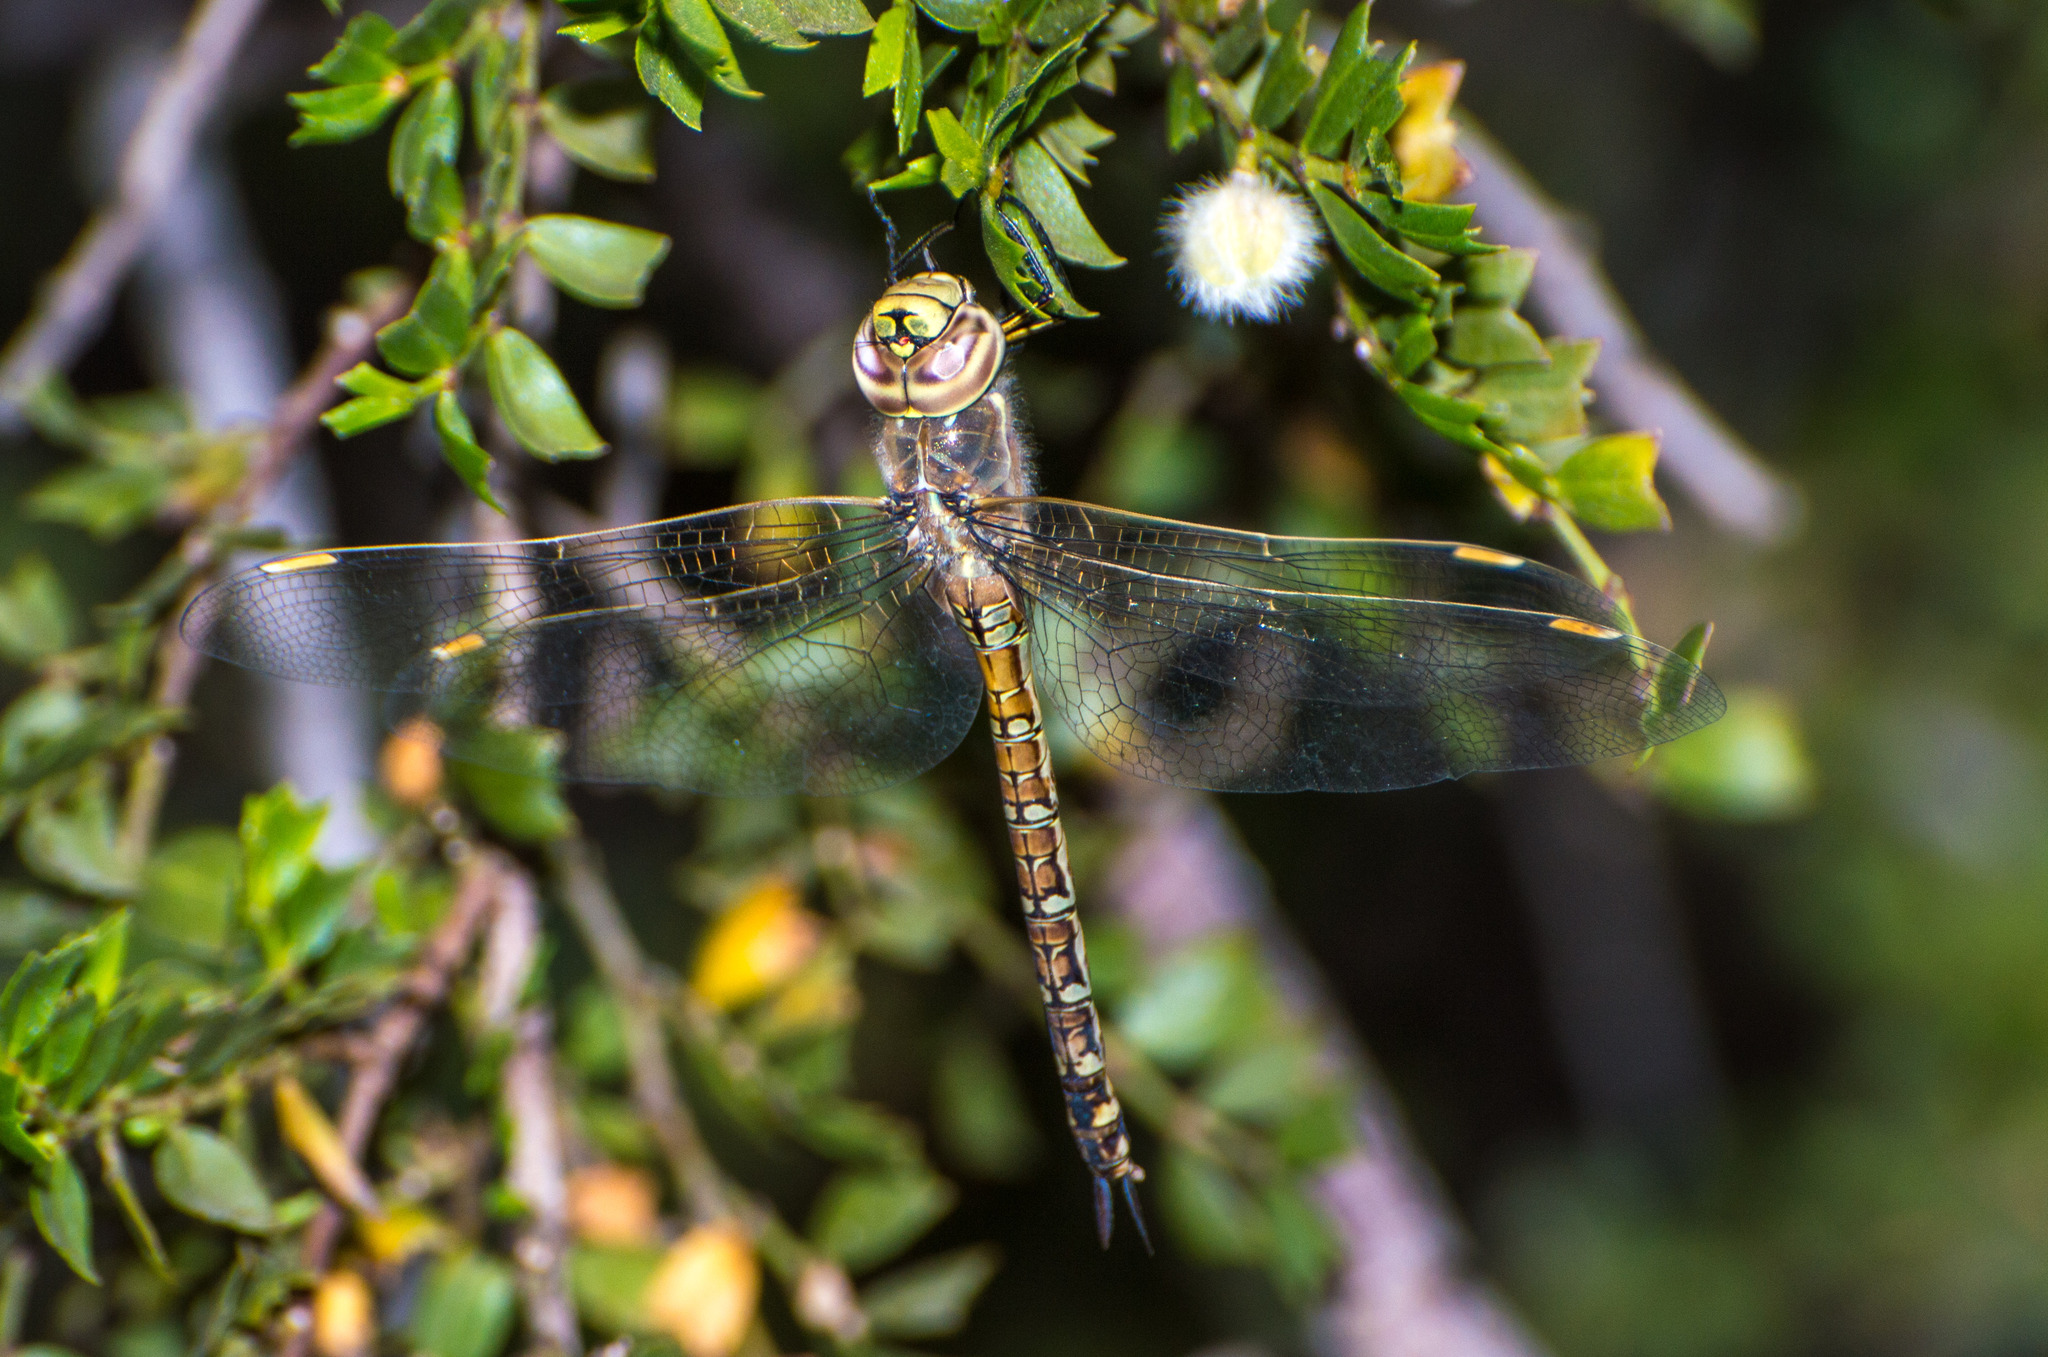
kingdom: Animalia
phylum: Arthropoda
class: Insecta
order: Odonata
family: Aeshnidae
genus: Rhionaeschna
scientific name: Rhionaeschna absoluta
